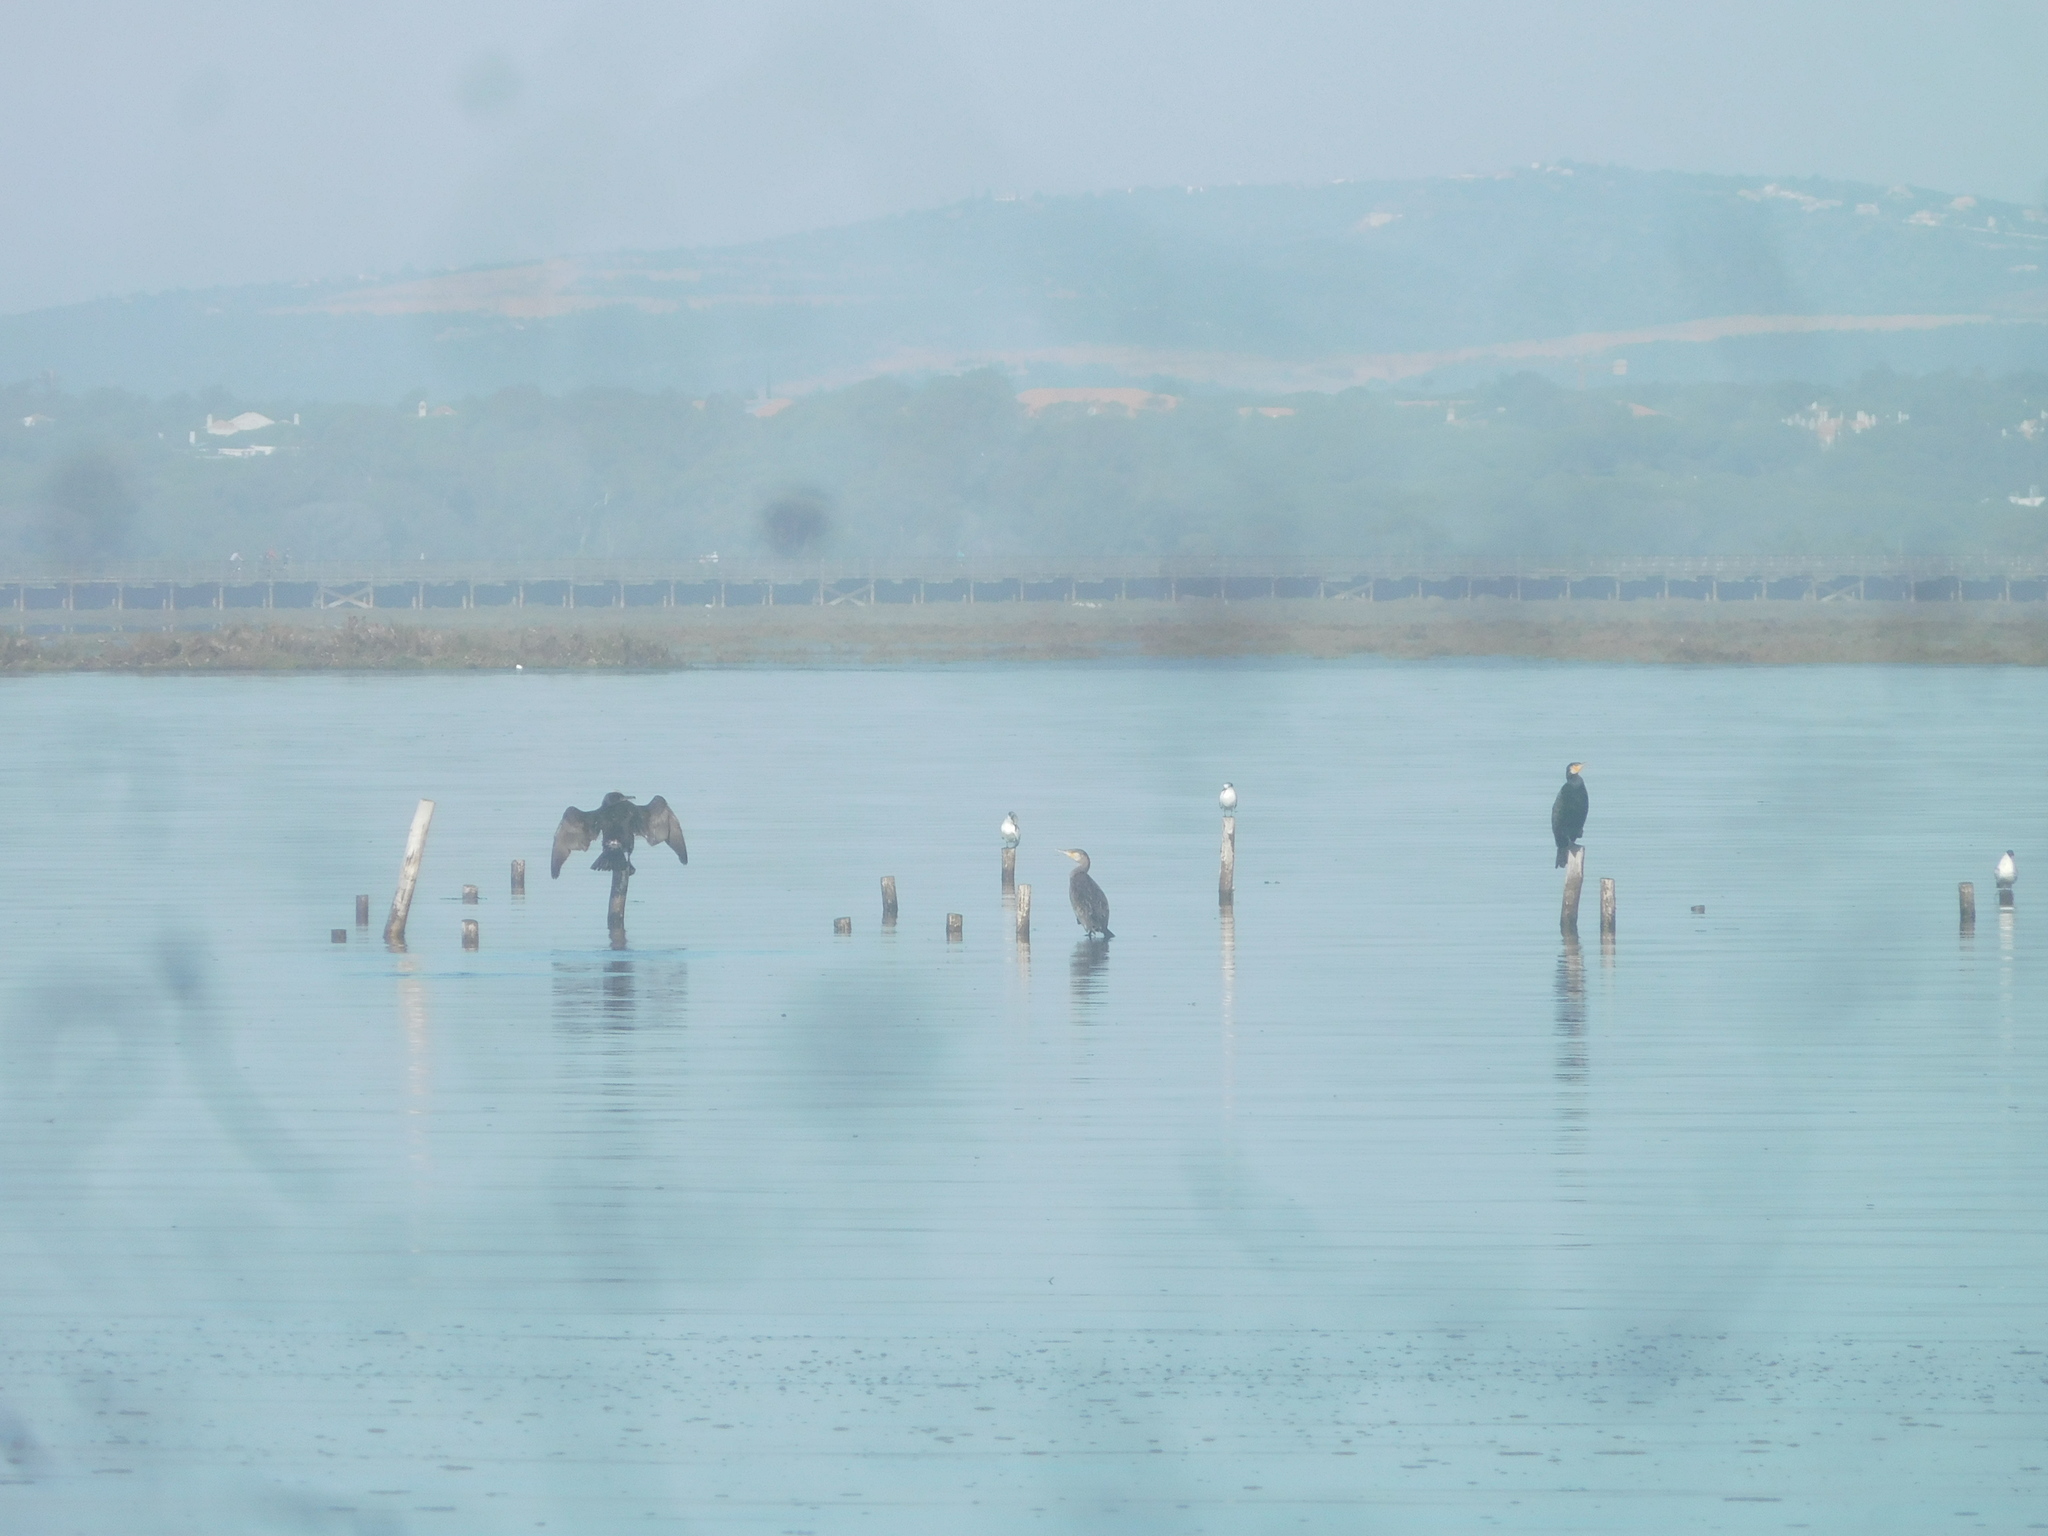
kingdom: Animalia
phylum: Chordata
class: Aves
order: Suliformes
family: Phalacrocoracidae
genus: Phalacrocorax
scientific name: Phalacrocorax carbo
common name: Great cormorant
